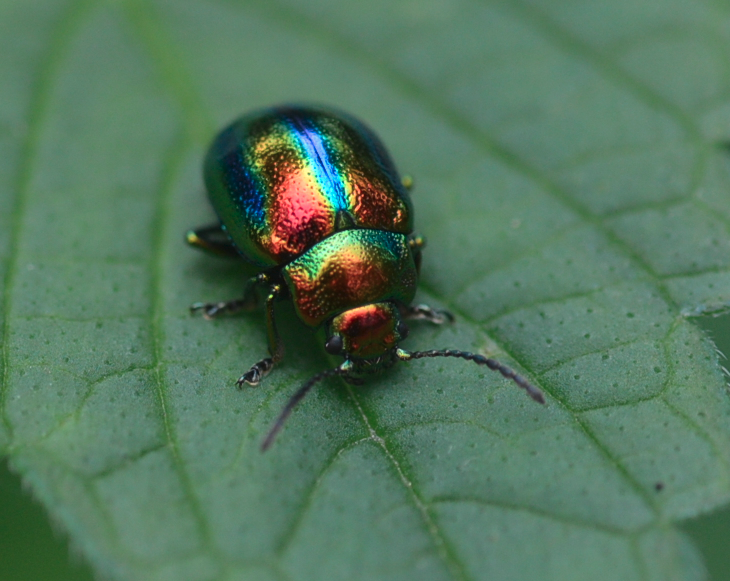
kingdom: Animalia
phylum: Arthropoda
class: Insecta
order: Coleoptera
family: Chrysomelidae
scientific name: Chrysomelidae
